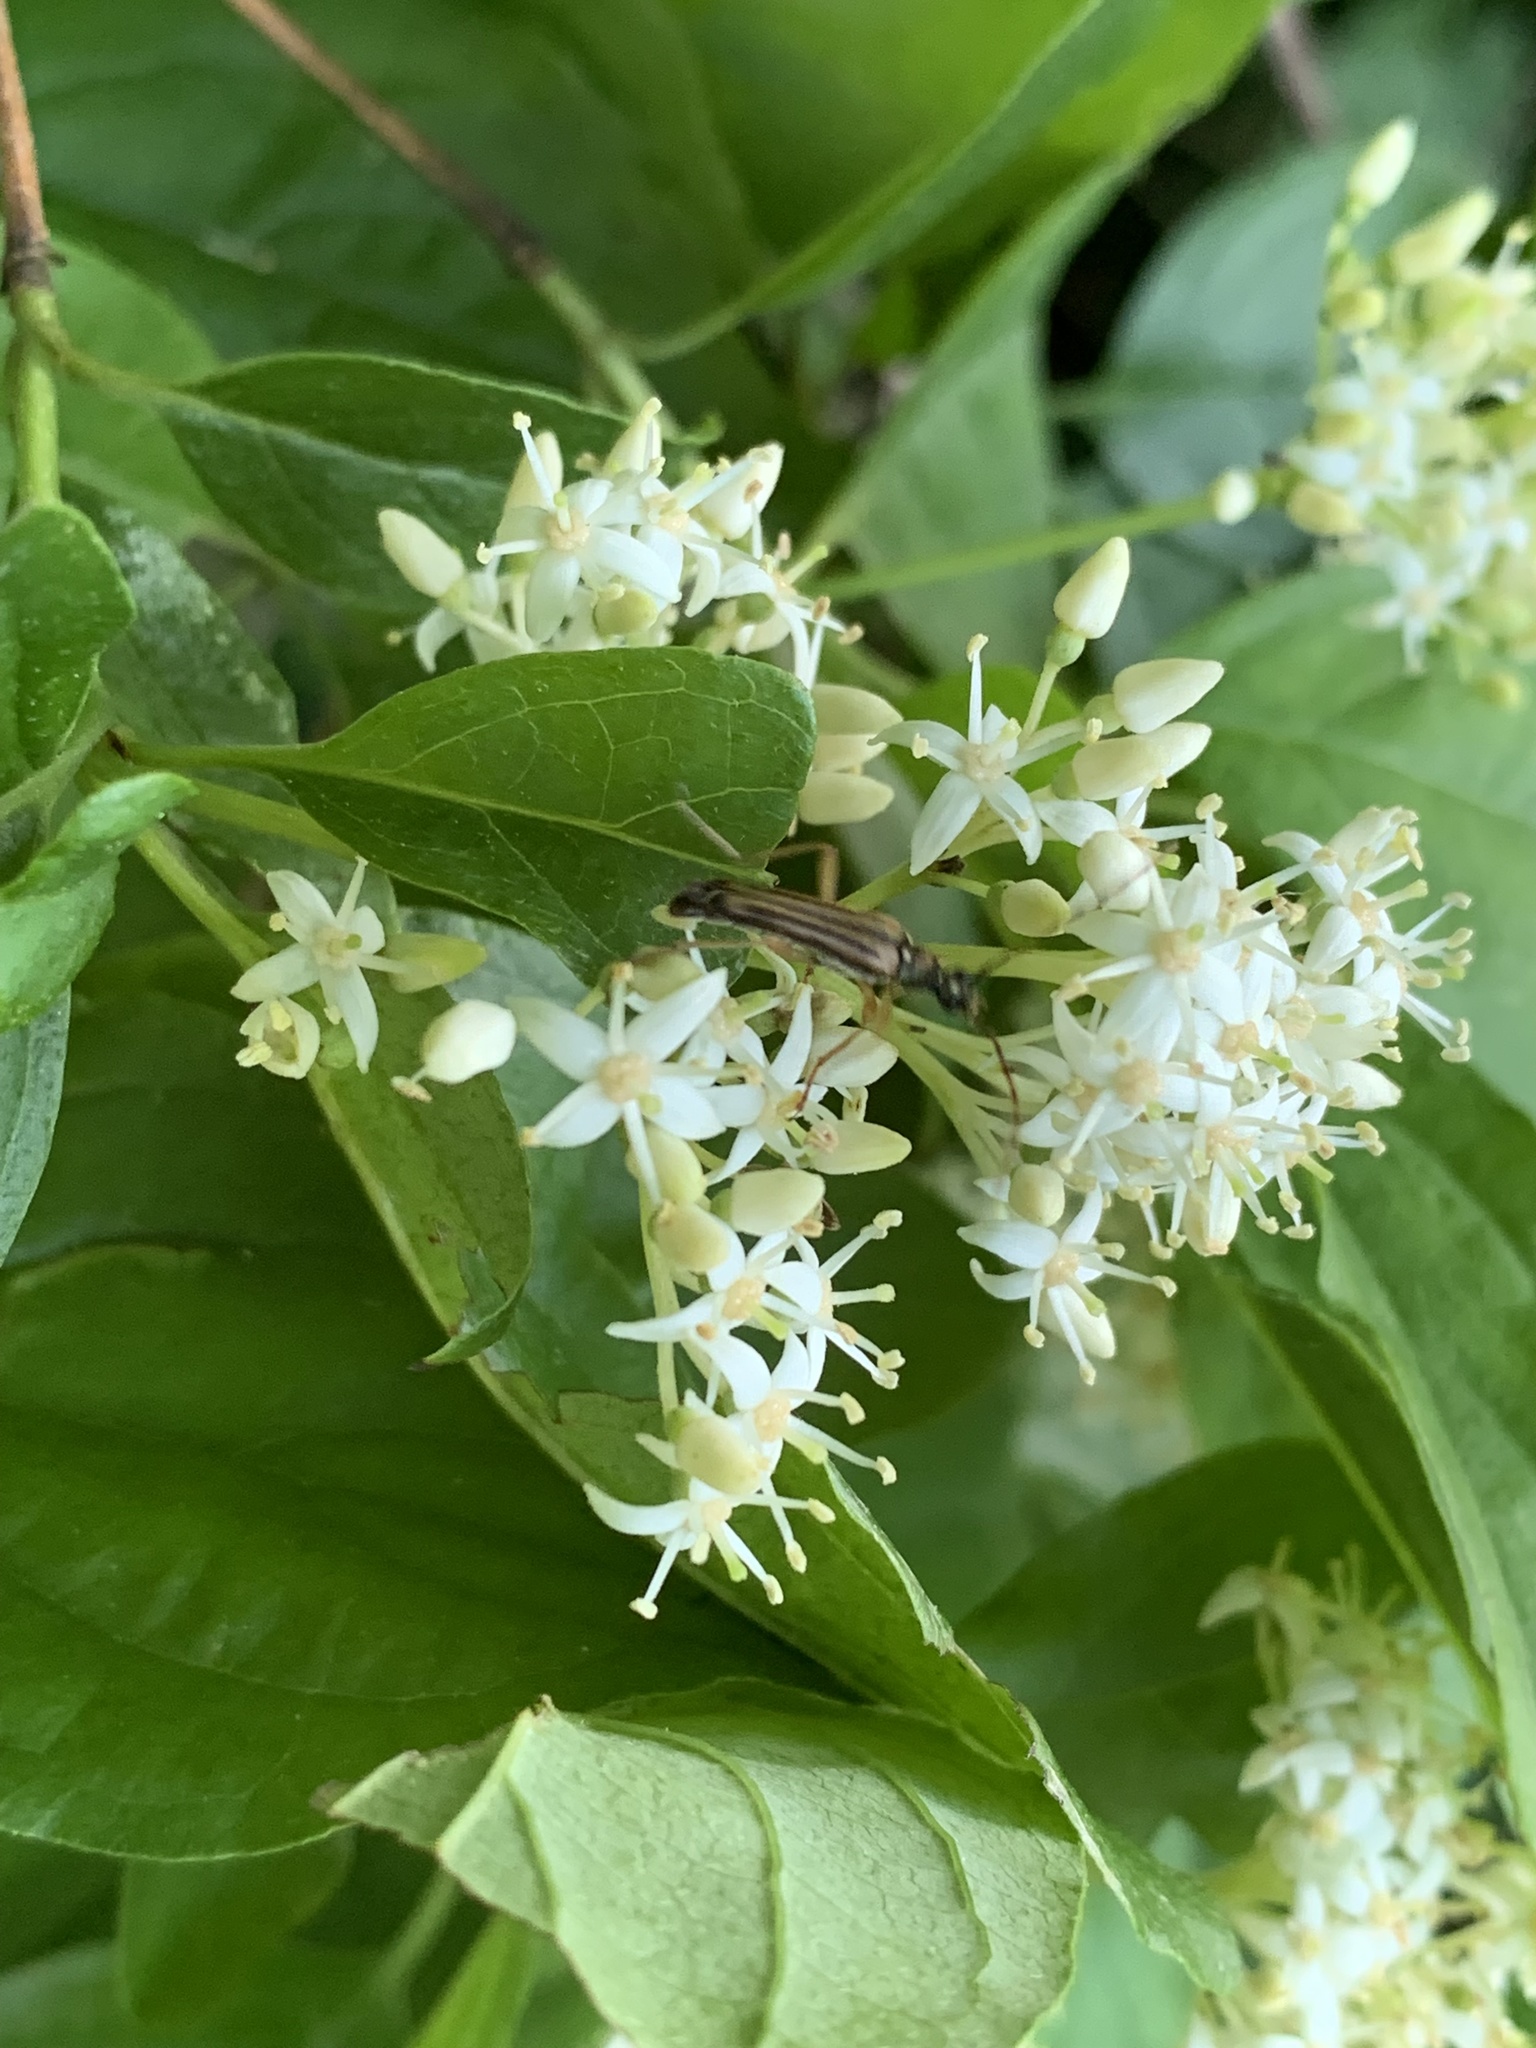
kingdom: Animalia
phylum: Arthropoda
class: Insecta
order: Coleoptera
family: Cerambycidae
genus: Analeptura
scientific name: Analeptura lineola
